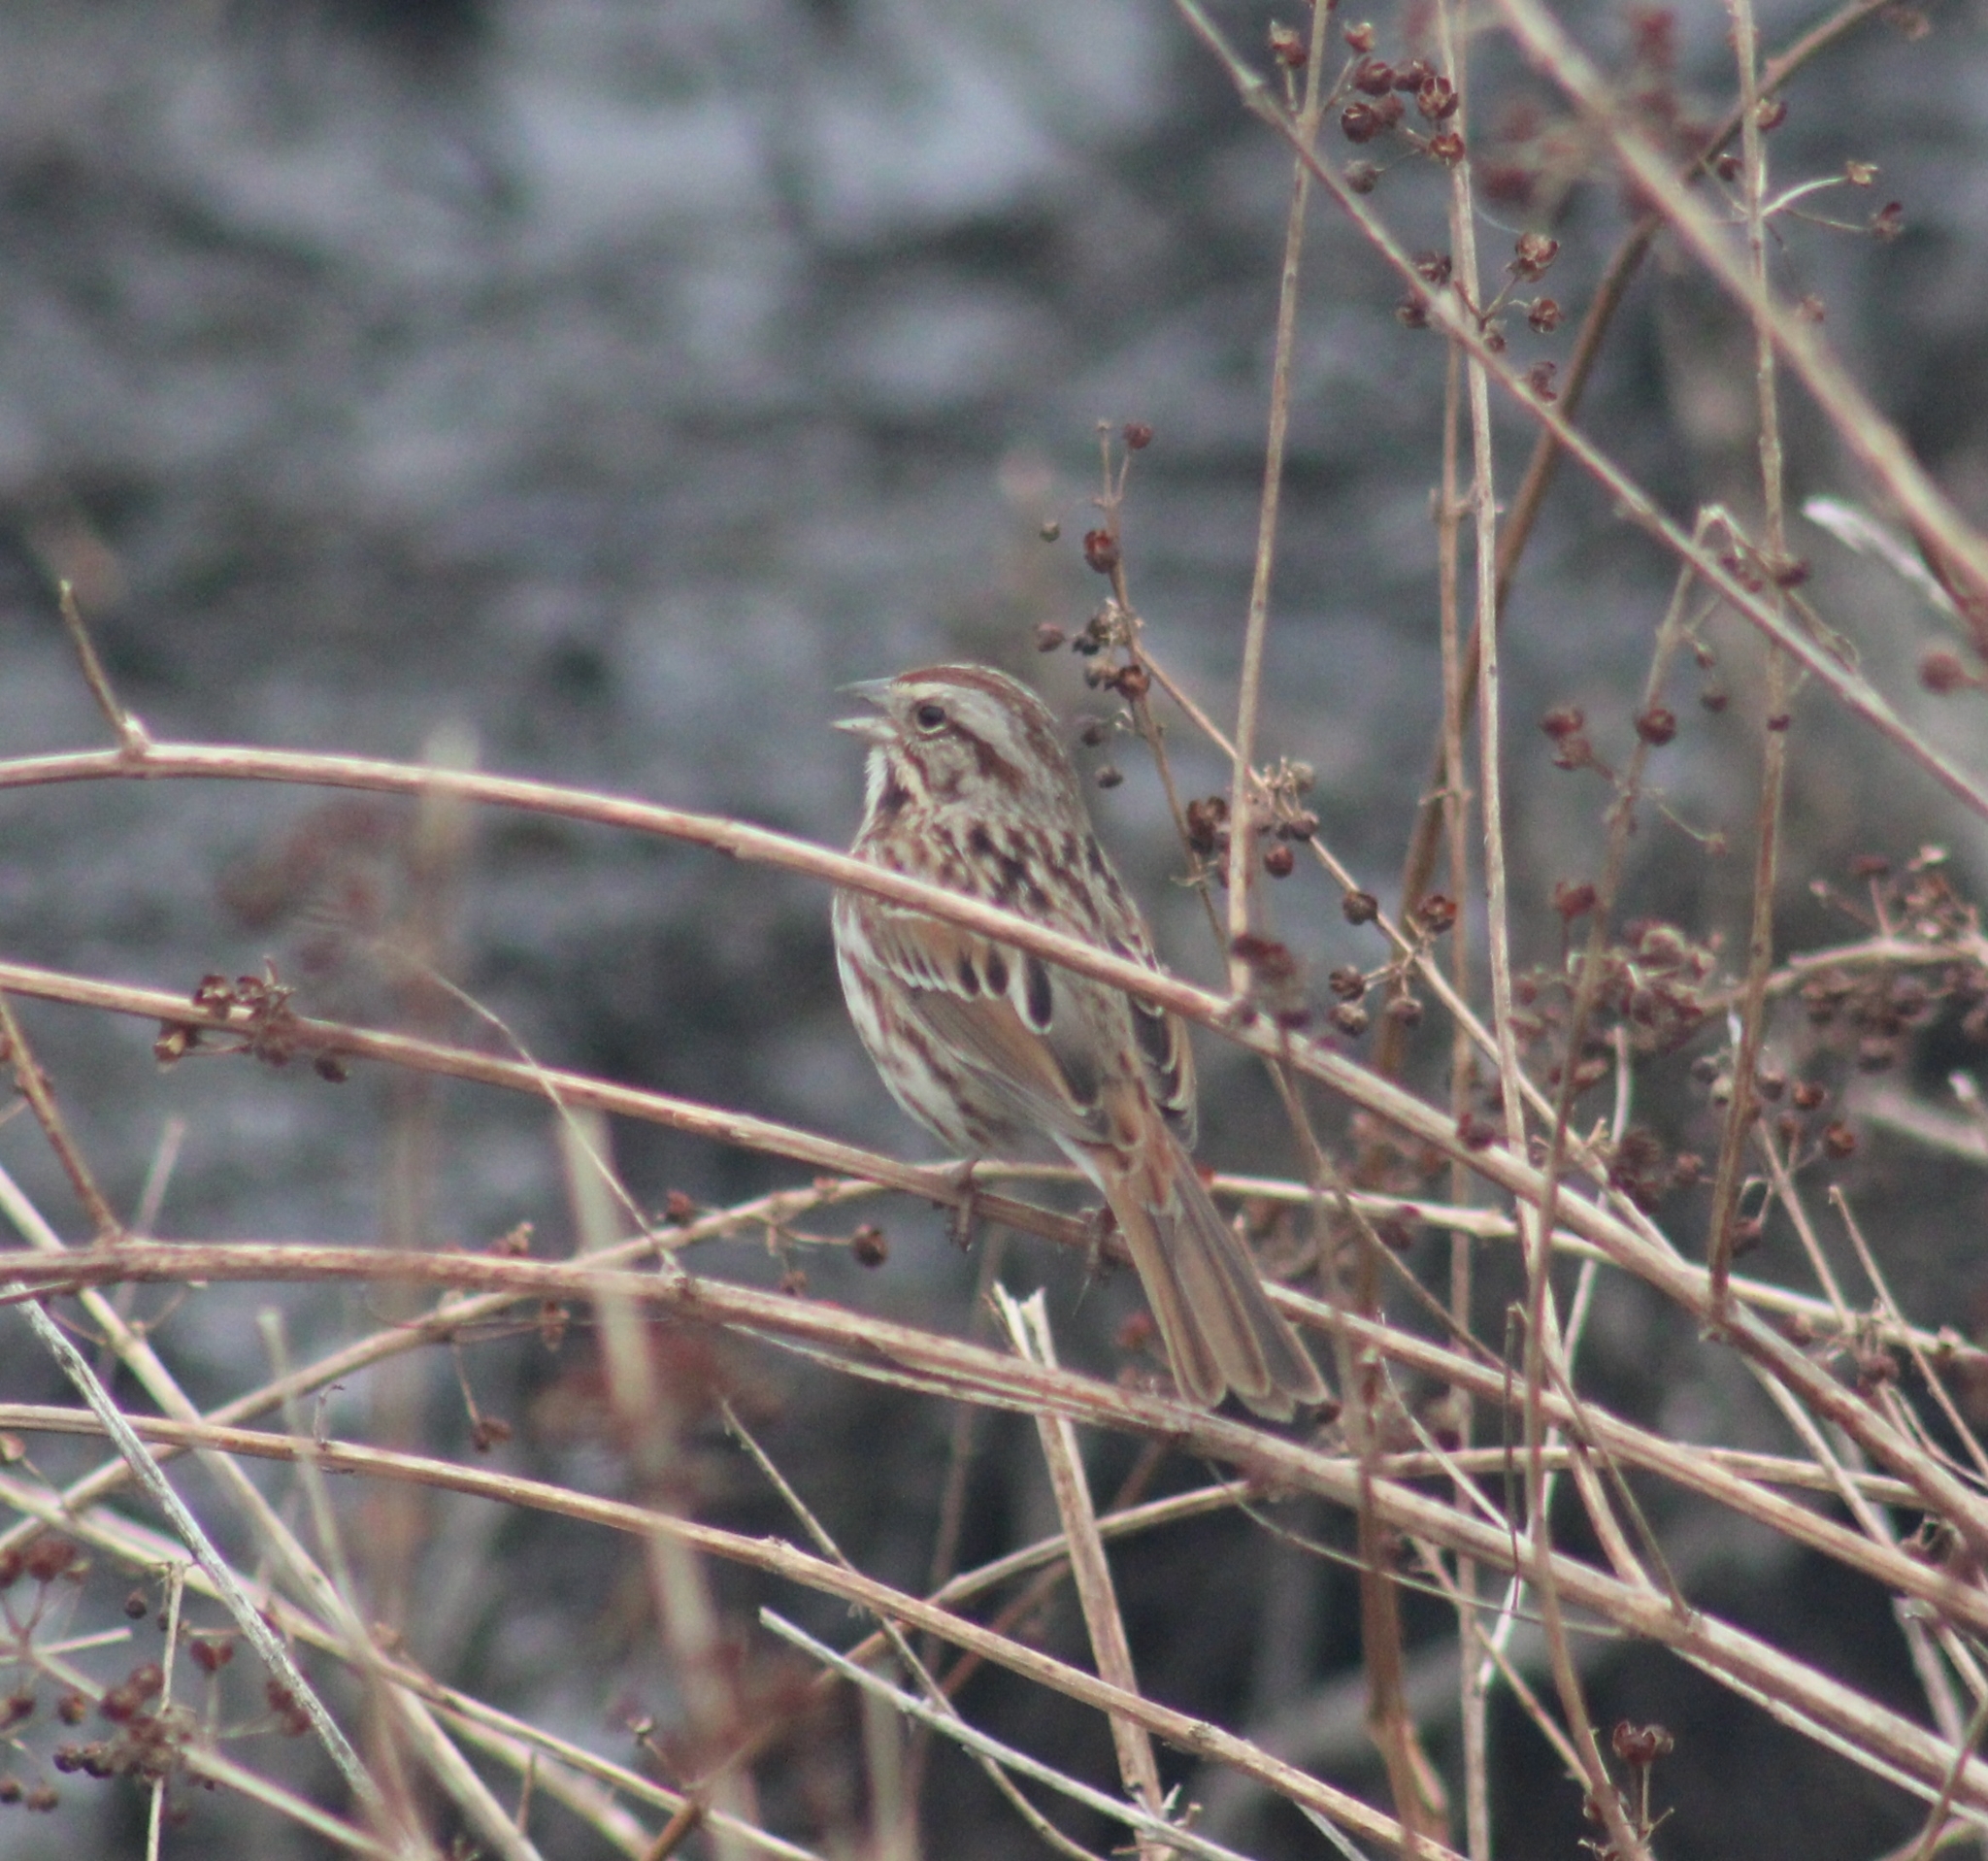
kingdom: Animalia
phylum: Chordata
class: Aves
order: Passeriformes
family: Passerellidae
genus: Melospiza
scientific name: Melospiza melodia
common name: Song sparrow
